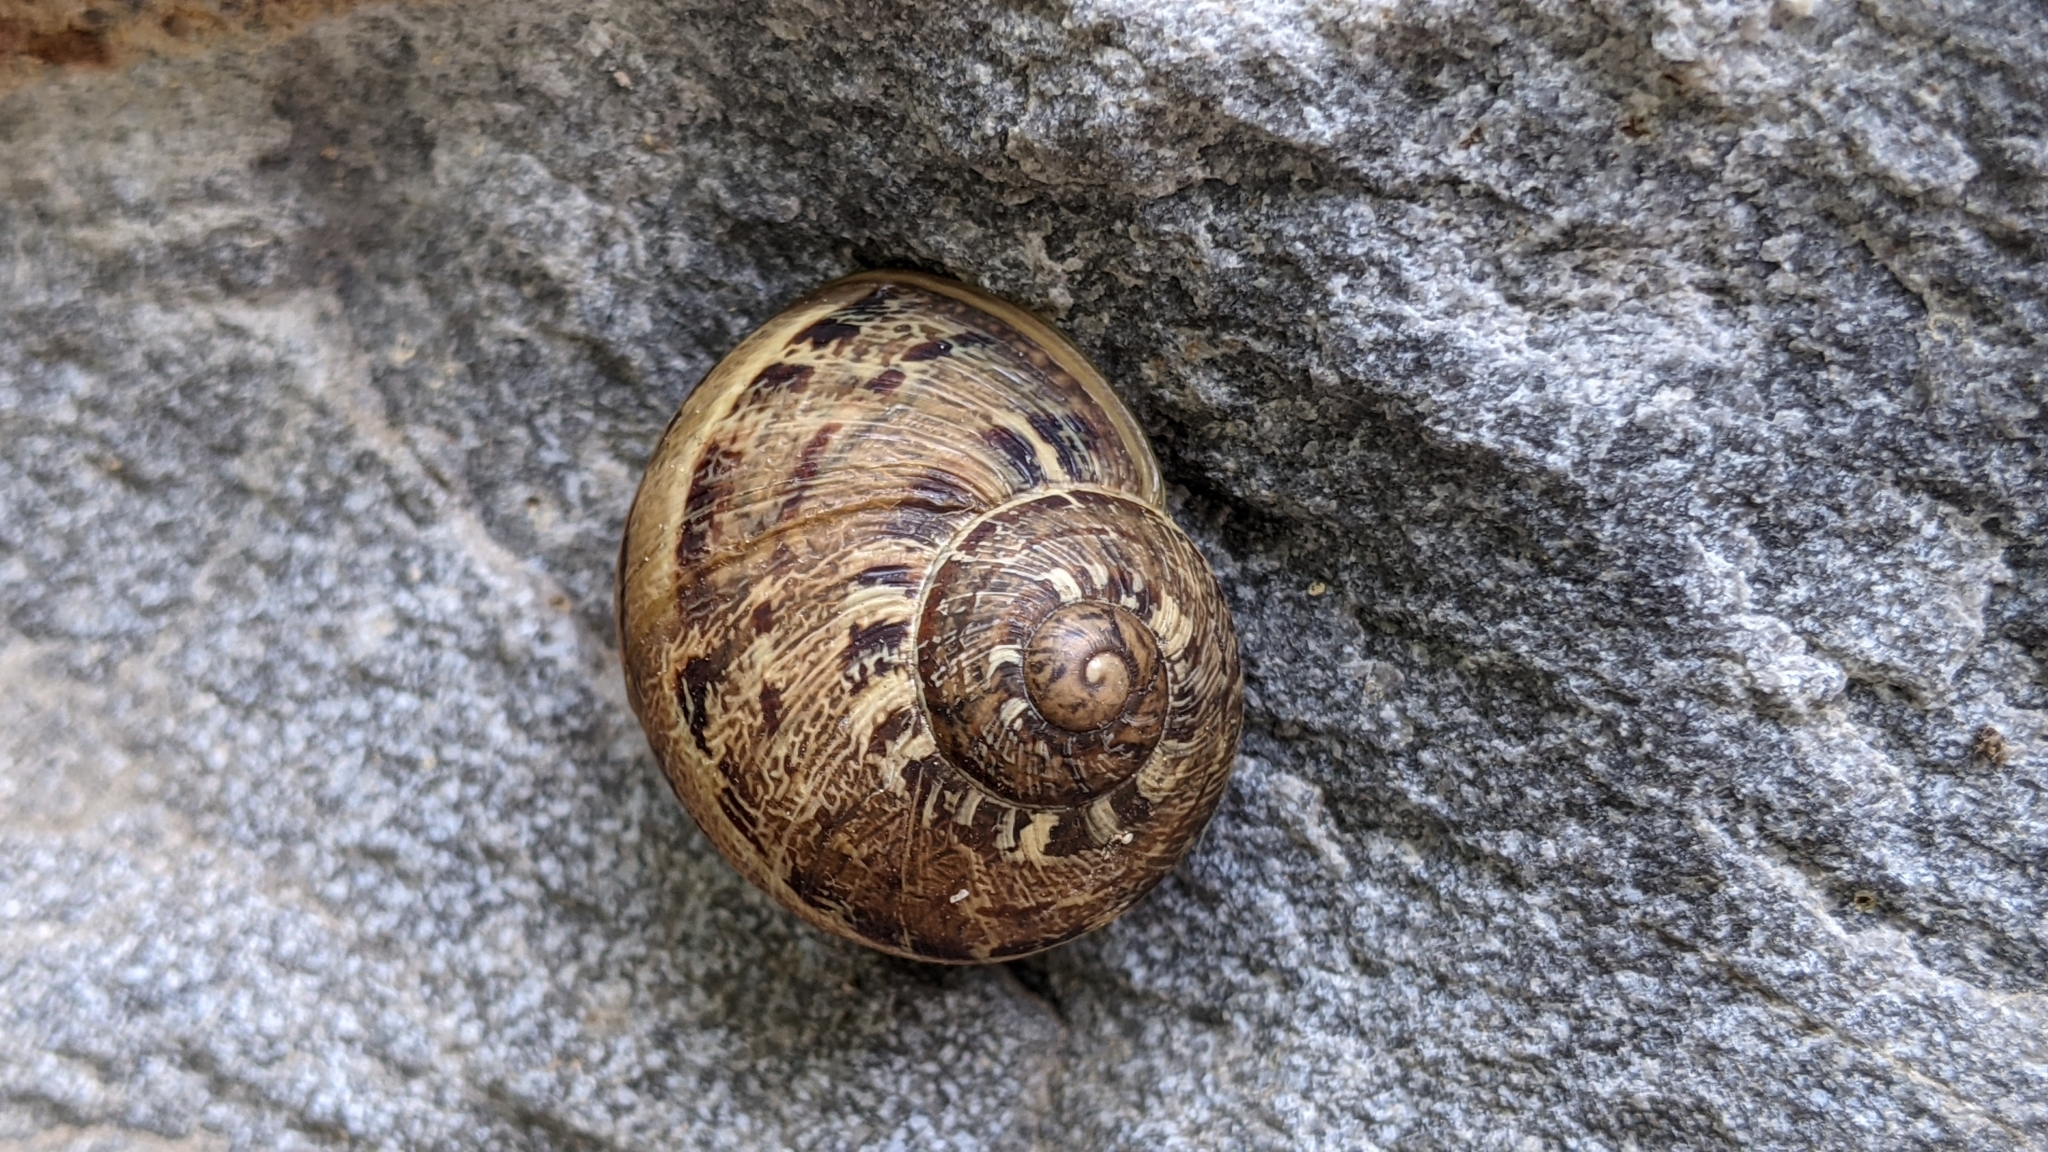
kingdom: Animalia
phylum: Mollusca
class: Gastropoda
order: Stylommatophora
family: Helicidae
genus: Cornu
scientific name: Cornu aspersum
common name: Brown garden snail
